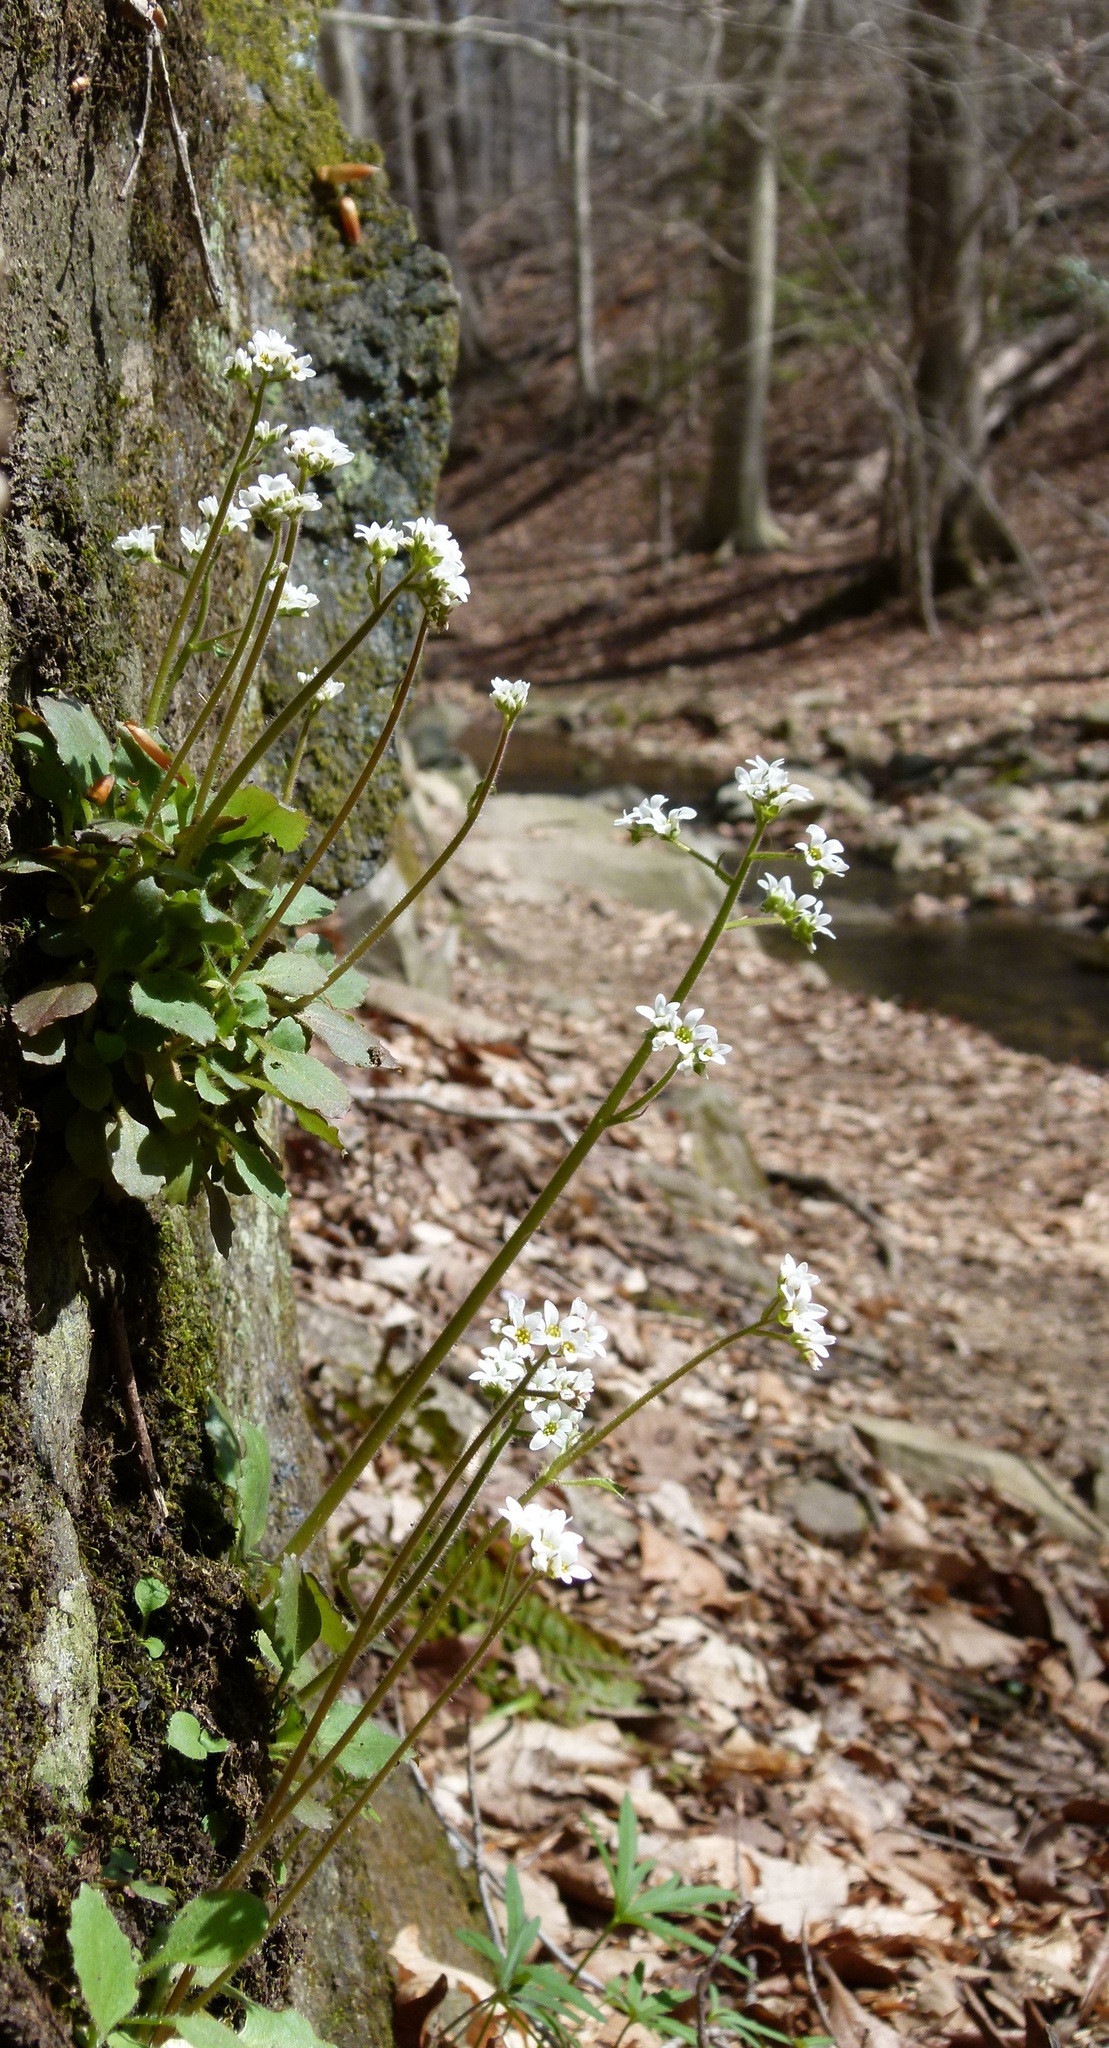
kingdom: Plantae
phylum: Tracheophyta
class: Magnoliopsida
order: Saxifragales
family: Saxifragaceae
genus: Micranthes
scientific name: Micranthes virginiensis
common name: Early saxifrage
